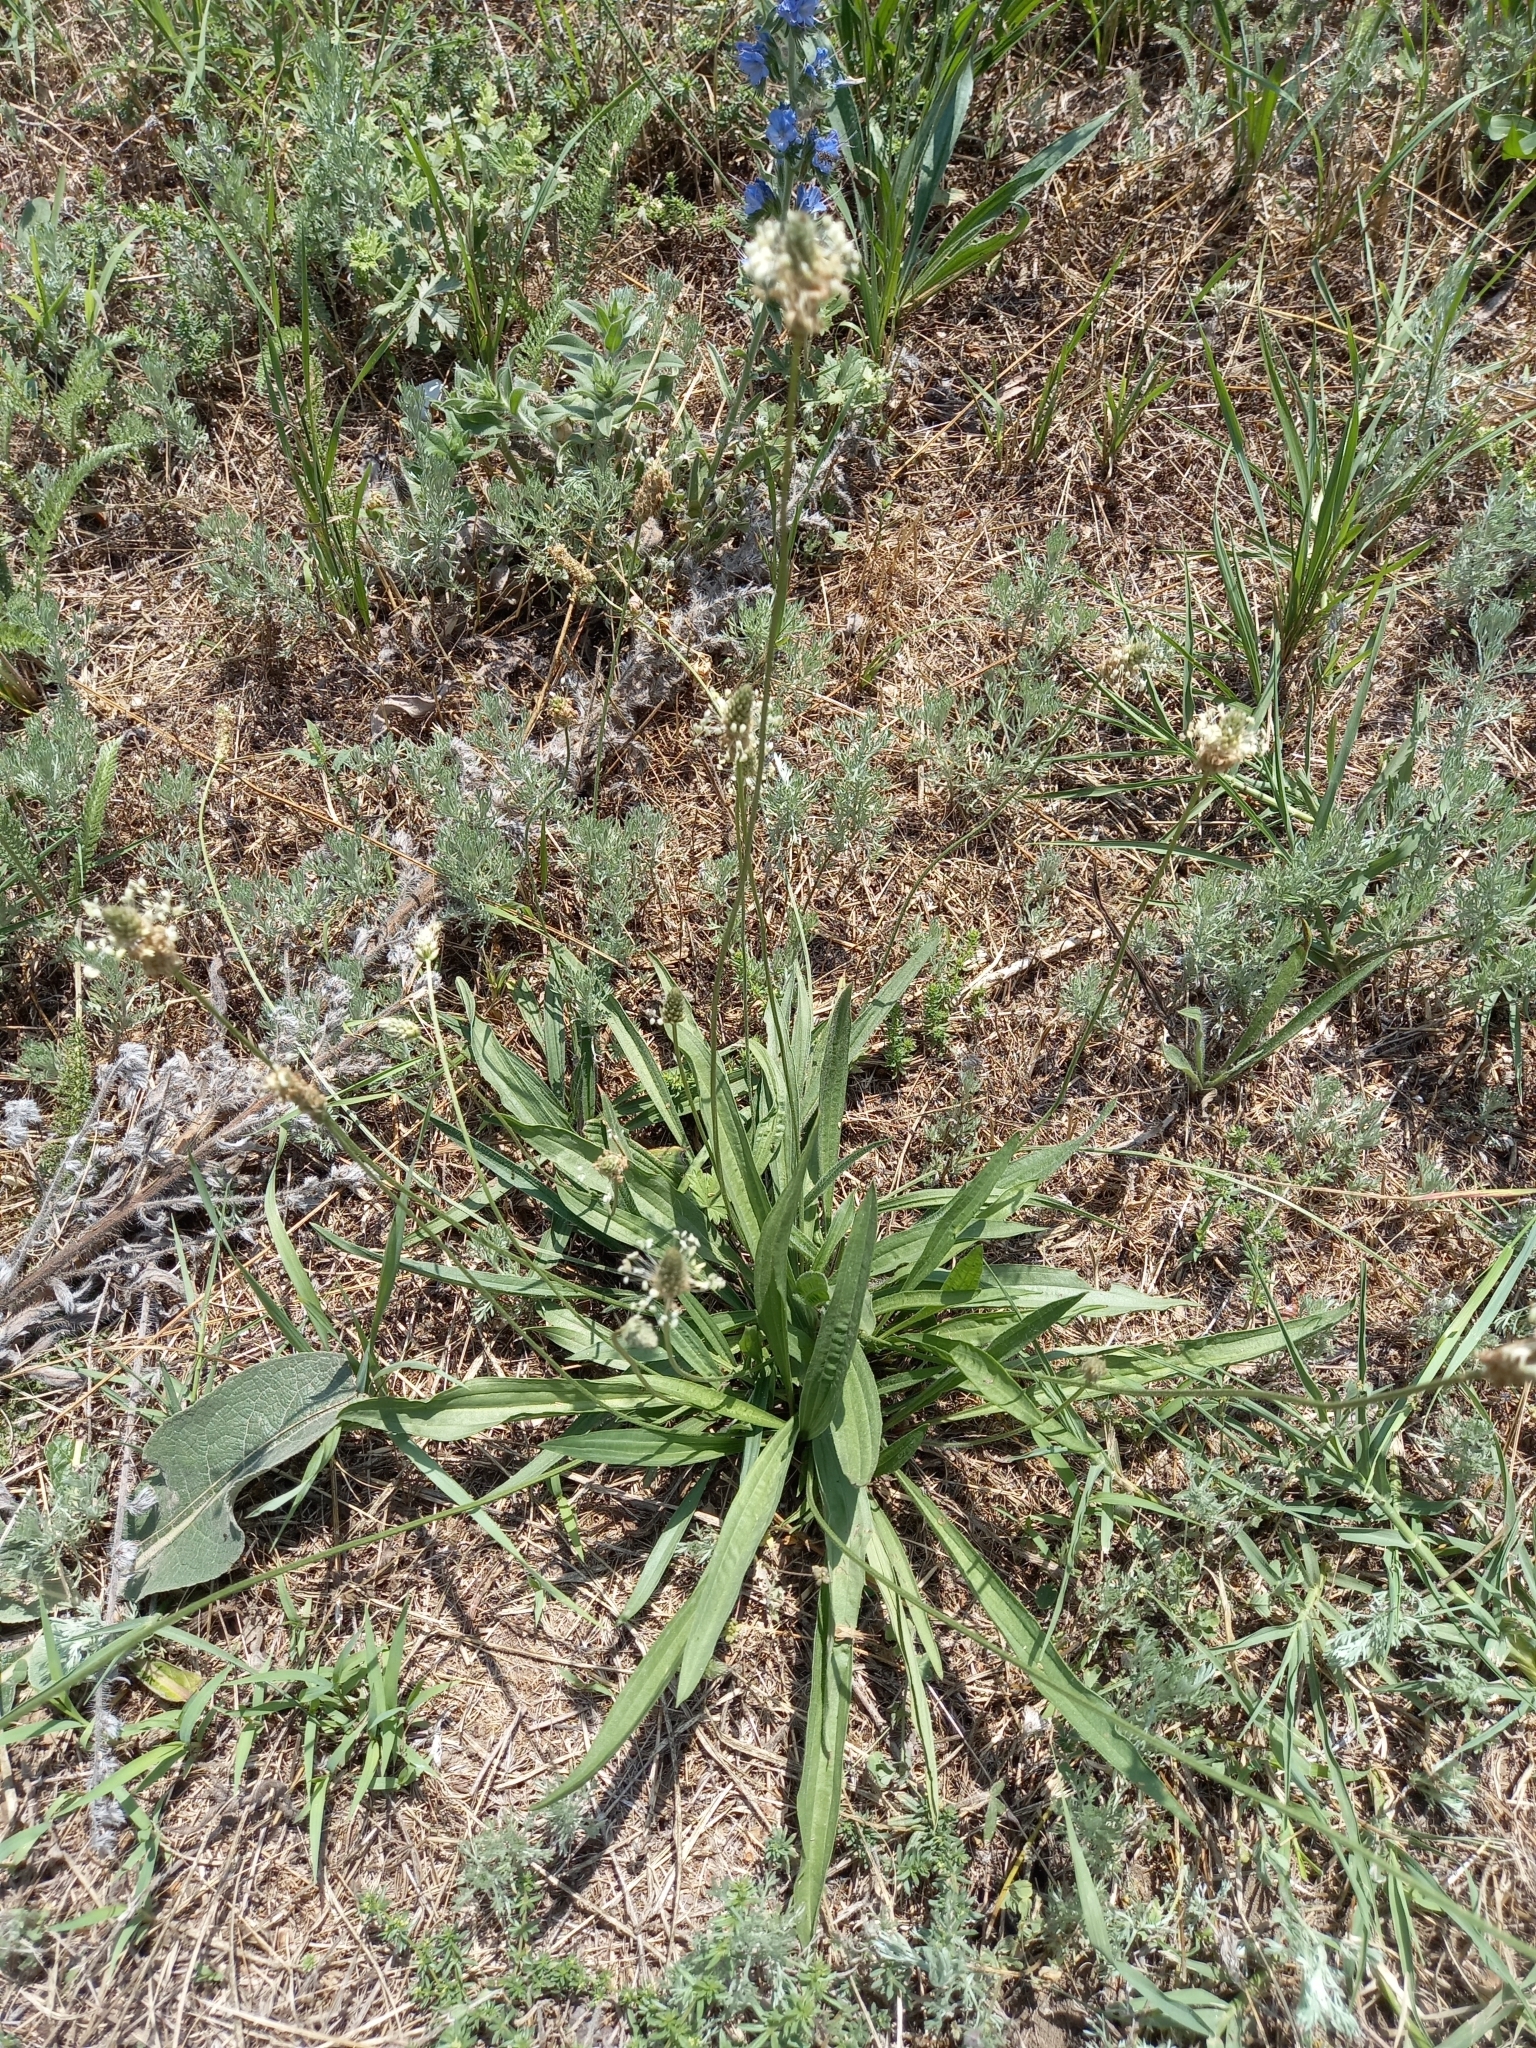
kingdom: Plantae
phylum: Tracheophyta
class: Magnoliopsida
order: Lamiales
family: Plantaginaceae
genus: Plantago
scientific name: Plantago lanceolata
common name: Ribwort plantain
